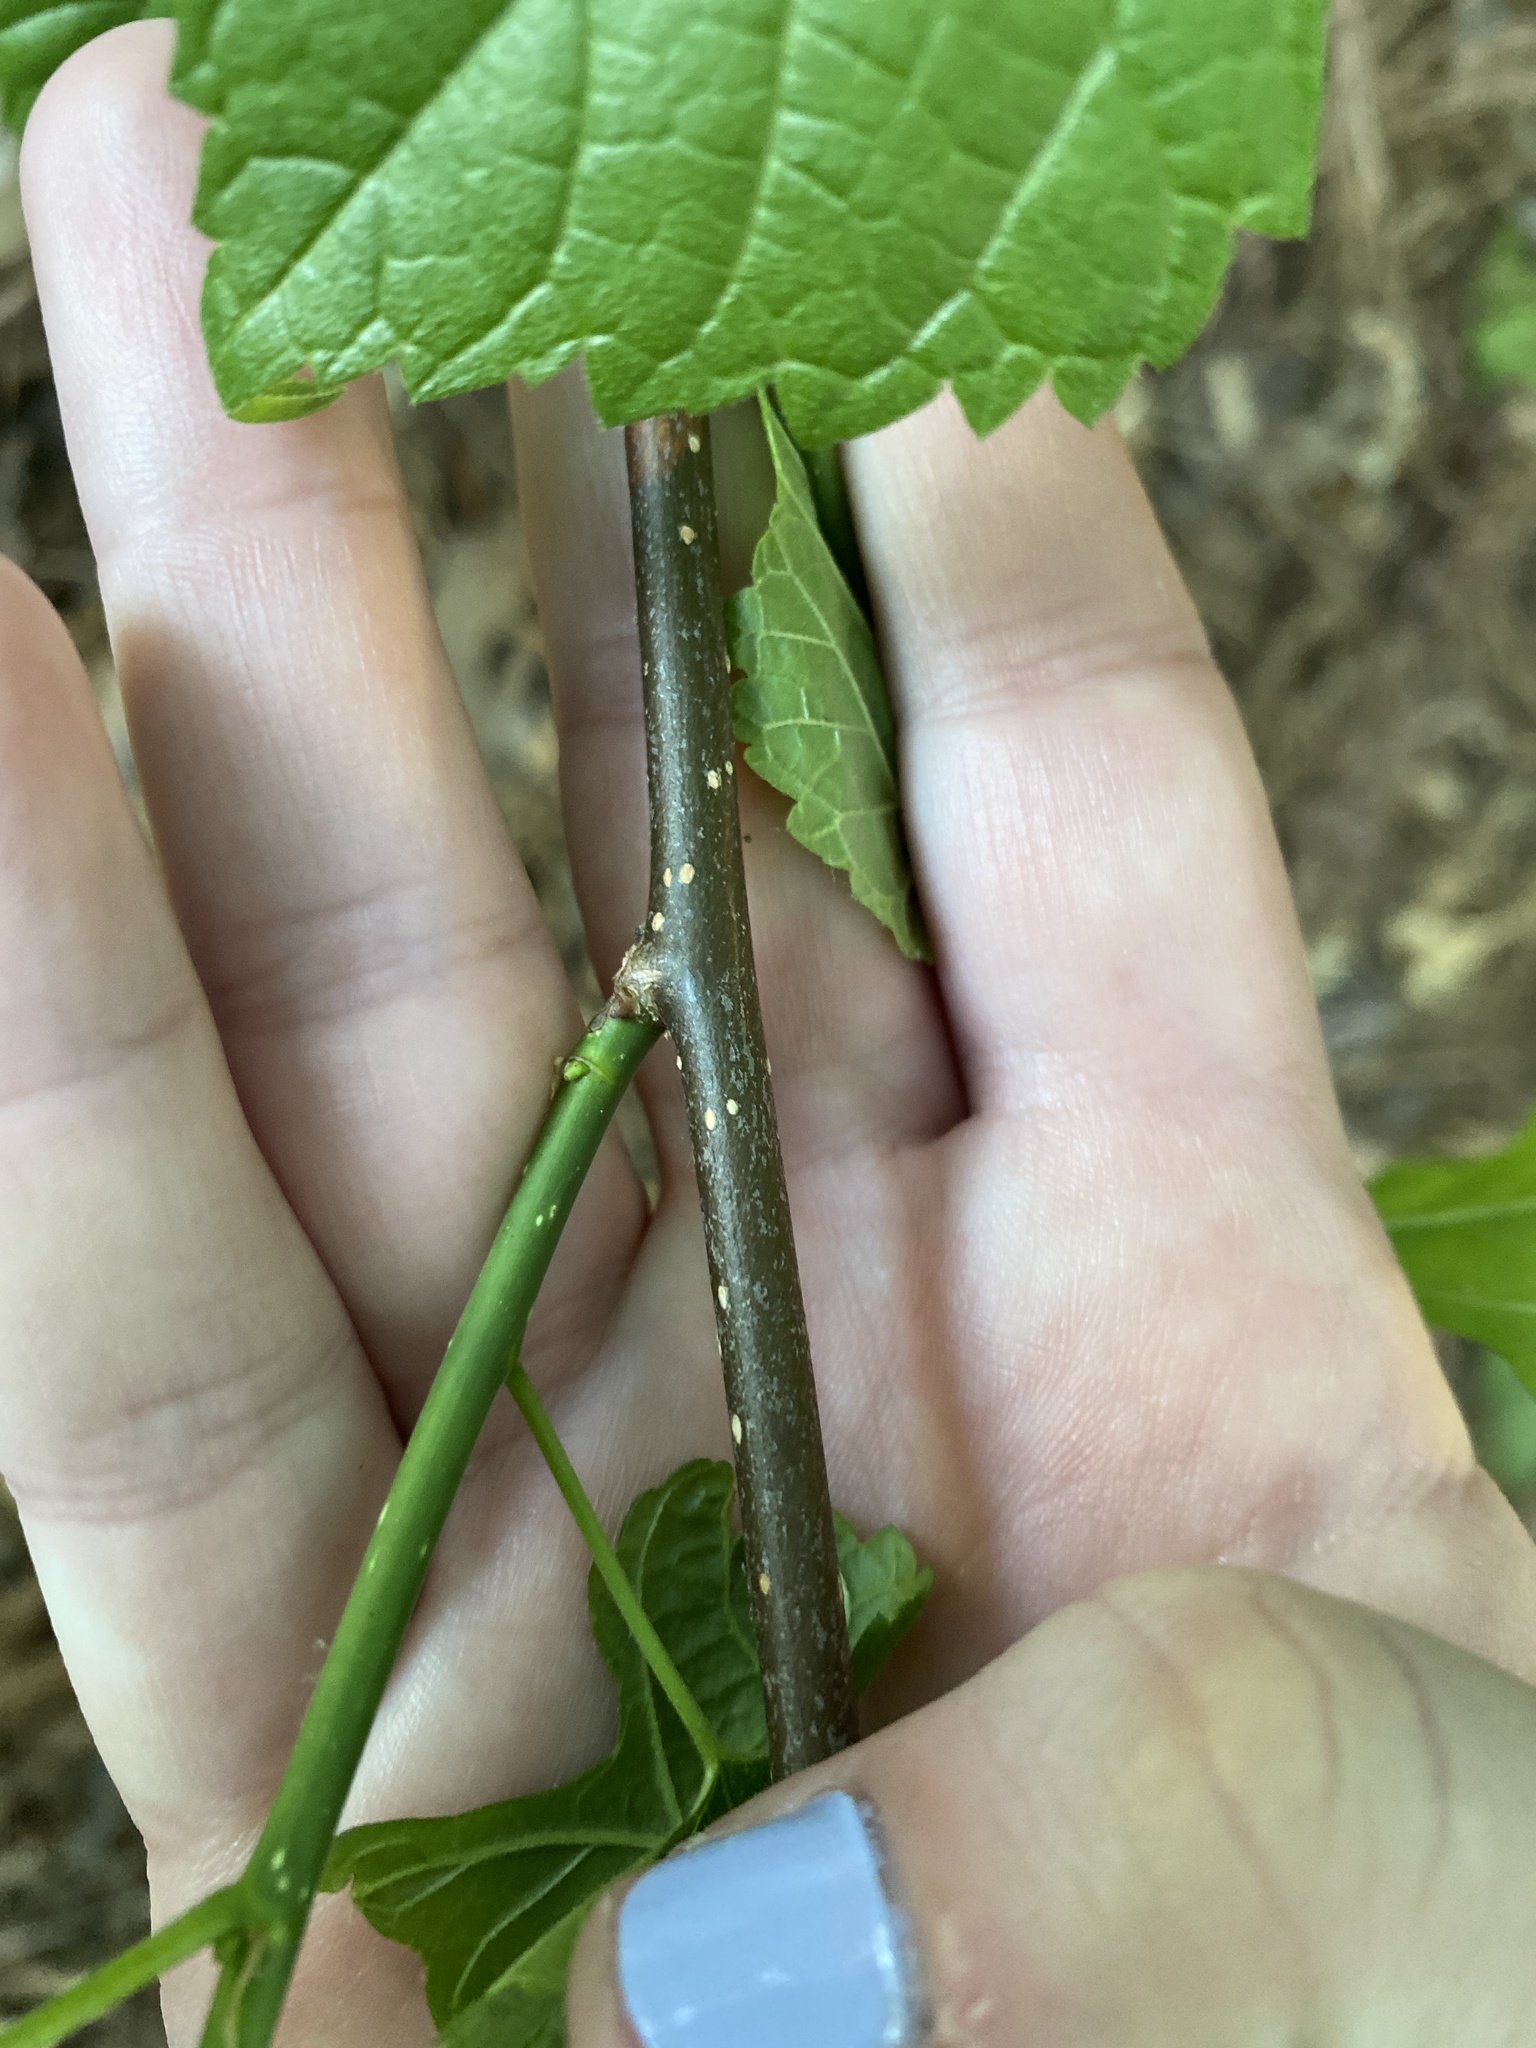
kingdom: Plantae
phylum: Tracheophyta
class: Magnoliopsida
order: Rosales
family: Moraceae
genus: Morus
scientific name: Morus rubra
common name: Red mulberry
